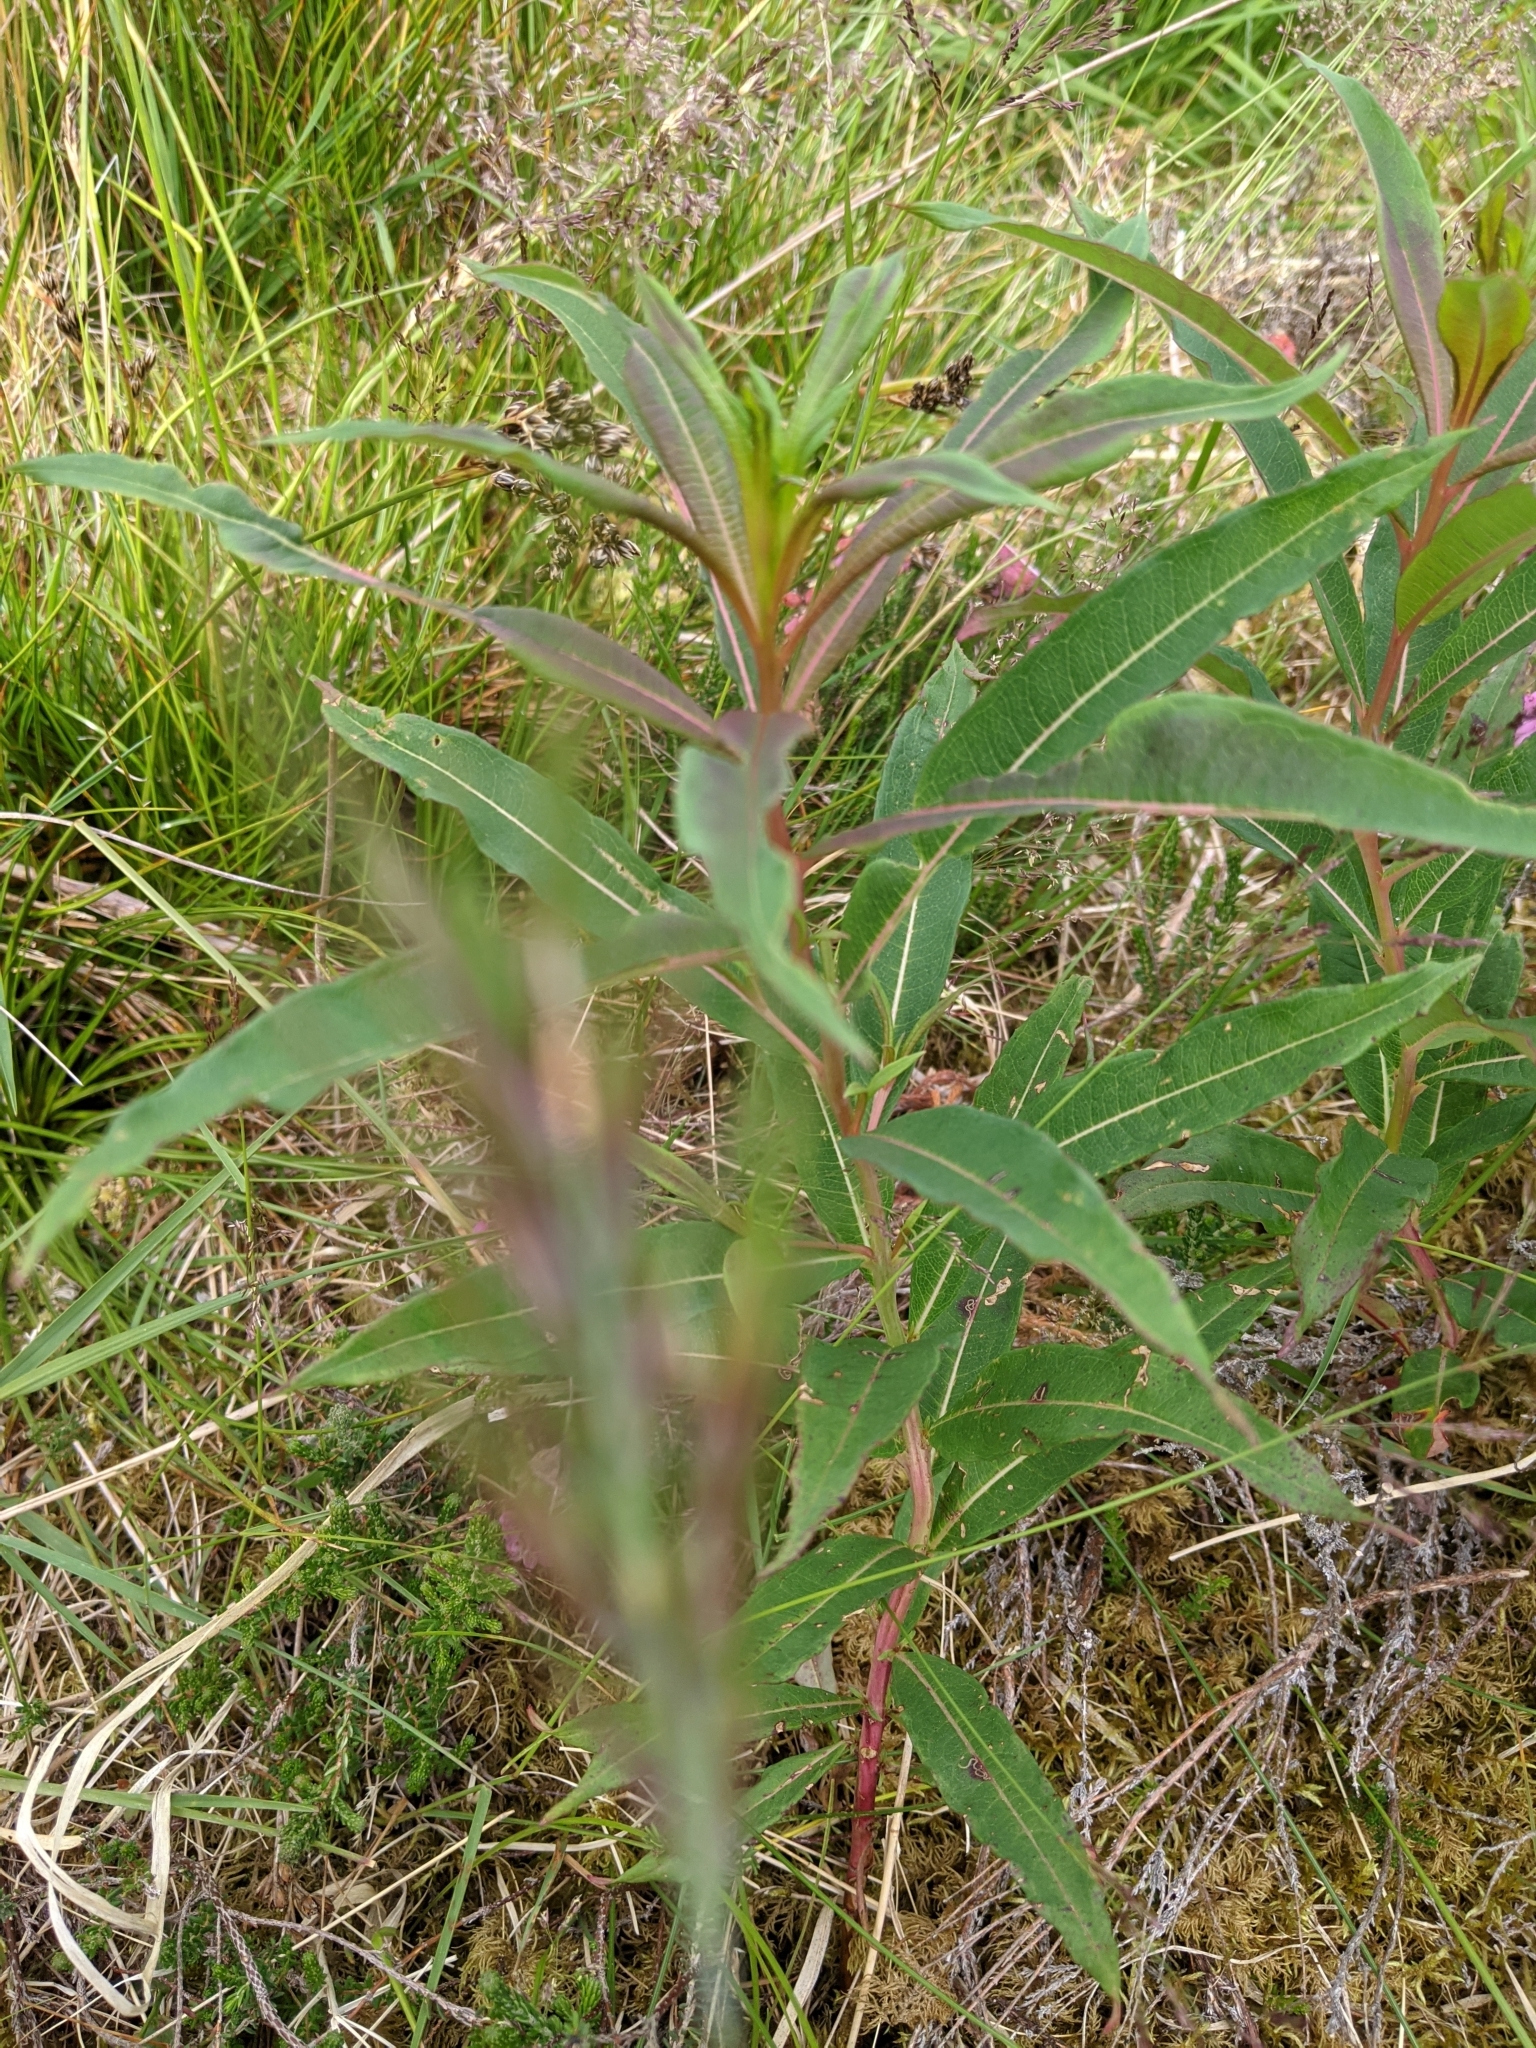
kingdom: Plantae
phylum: Tracheophyta
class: Magnoliopsida
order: Myrtales
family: Onagraceae
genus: Chamaenerion
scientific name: Chamaenerion angustifolium
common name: Fireweed
